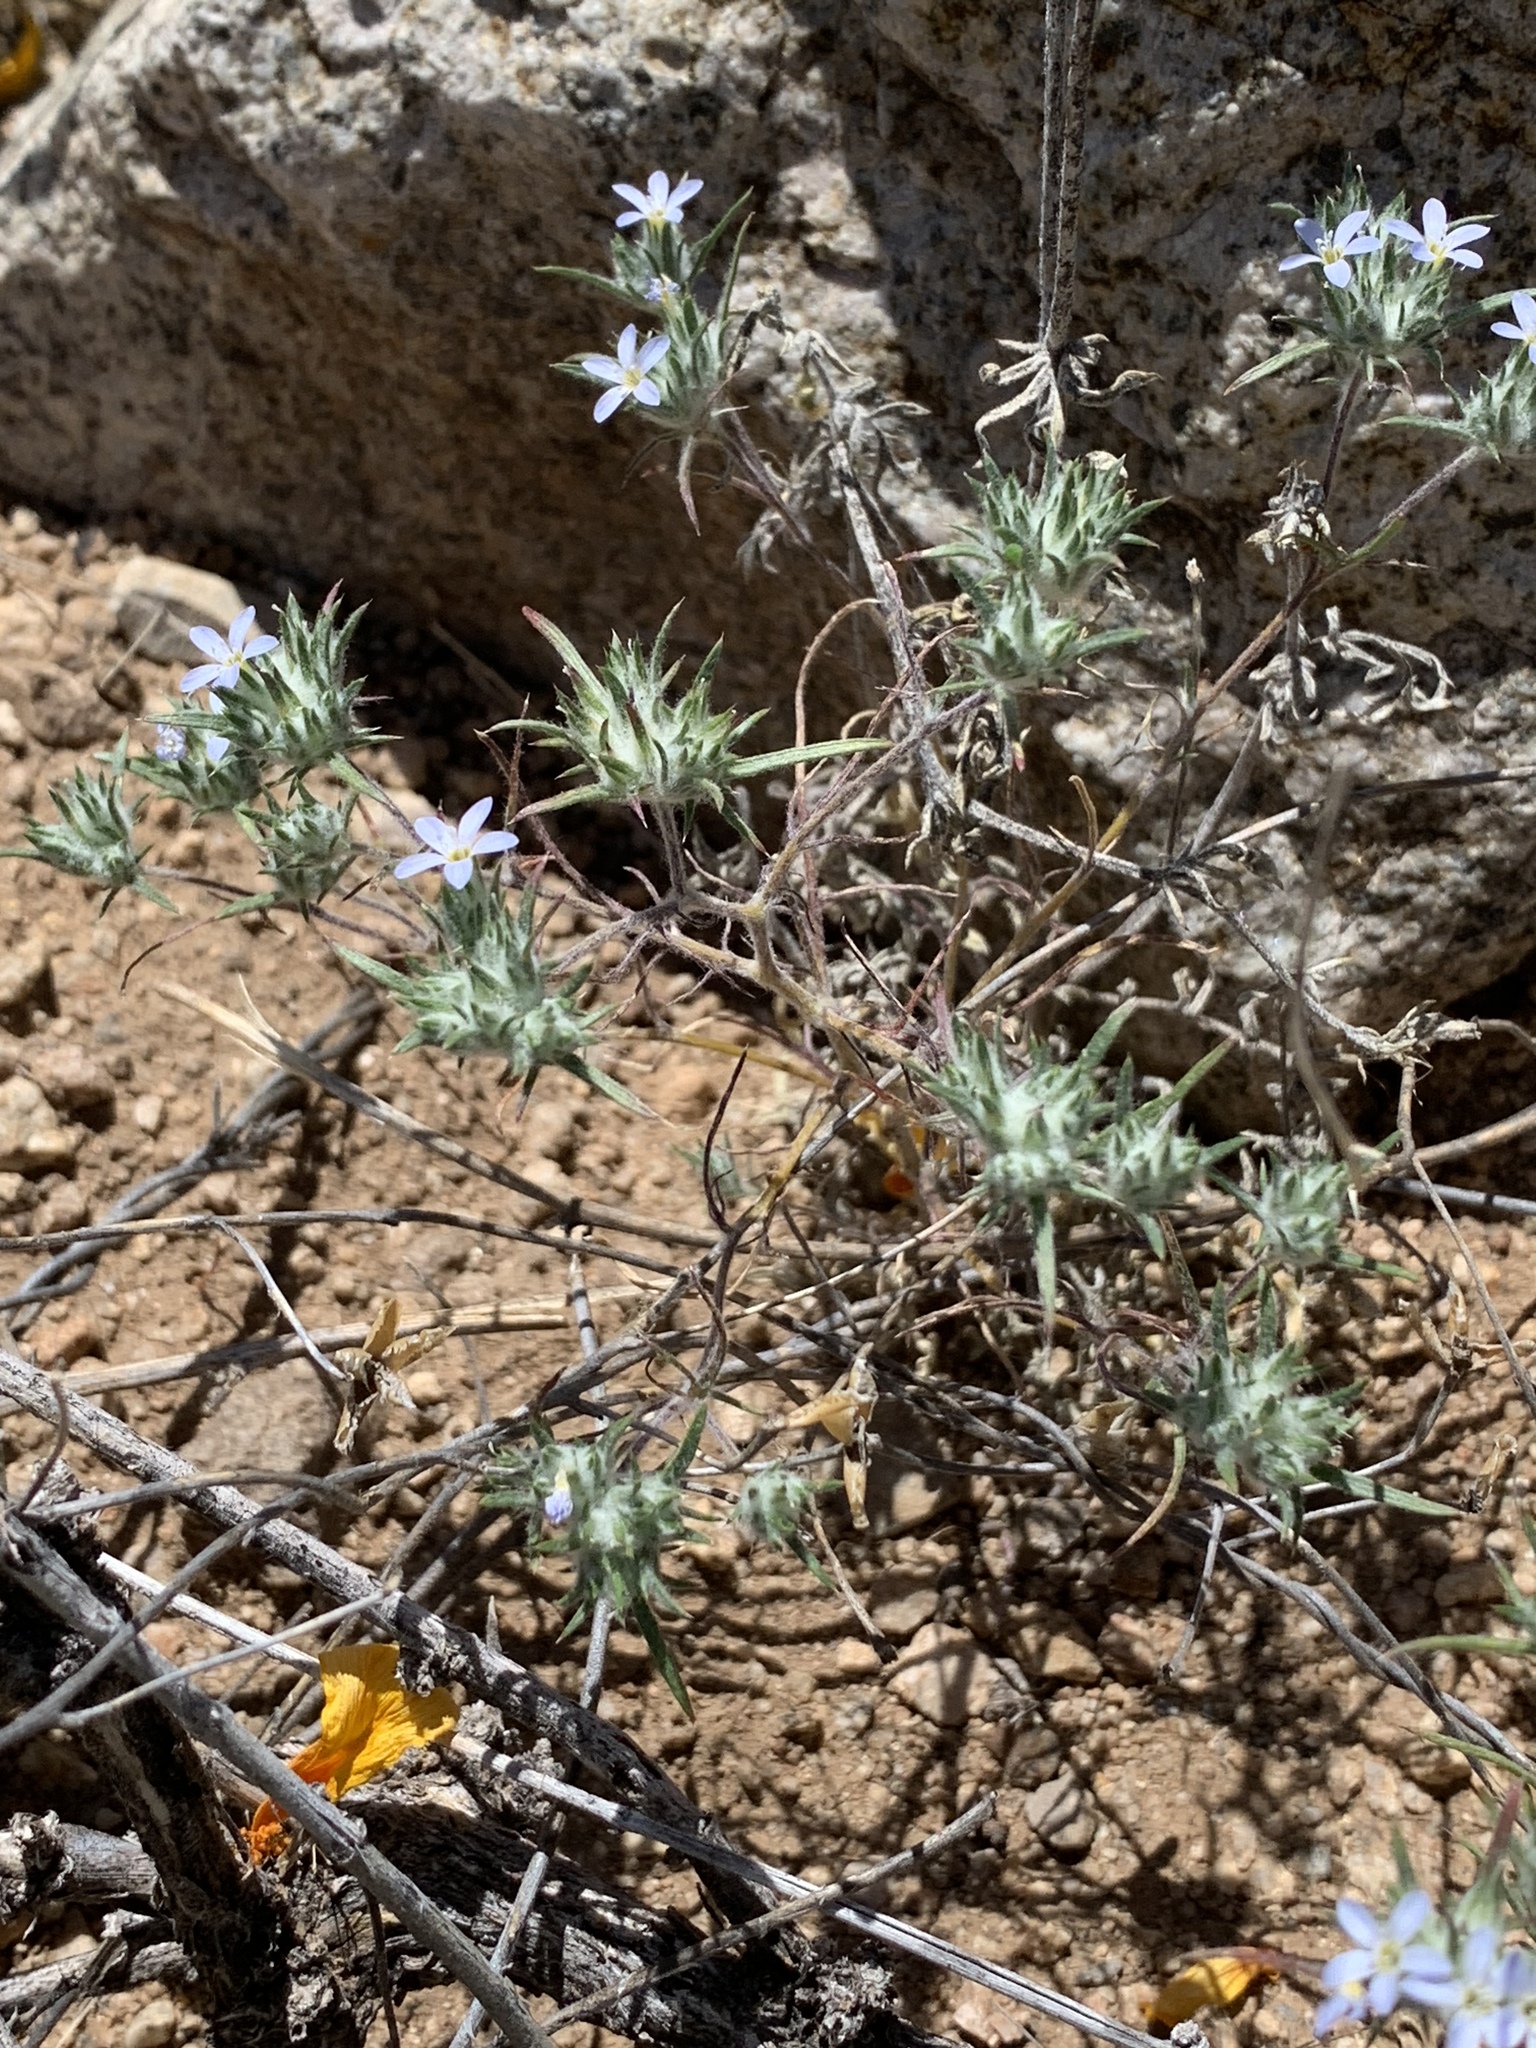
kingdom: Plantae
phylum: Tracheophyta
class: Magnoliopsida
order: Ericales
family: Polemoniaceae
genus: Eriastrum
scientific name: Eriastrum diffusum
